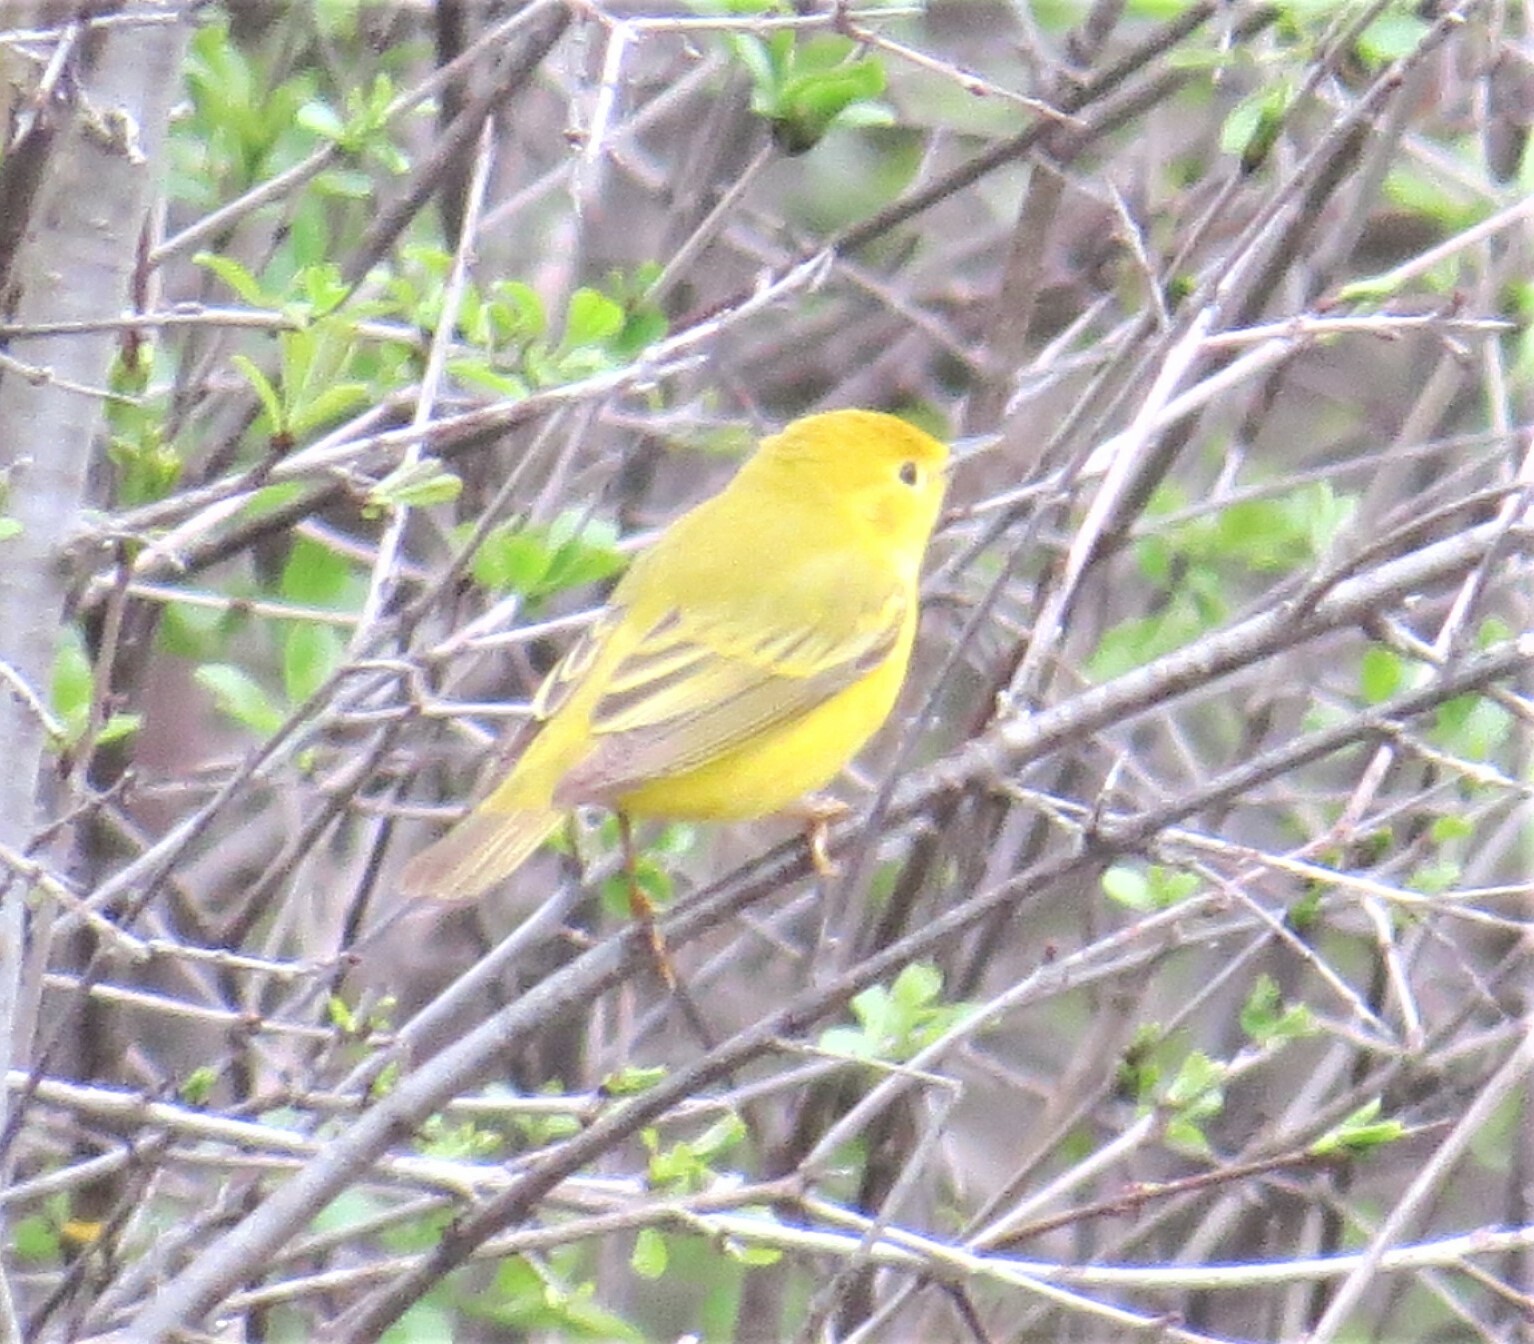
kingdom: Animalia
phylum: Chordata
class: Aves
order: Passeriformes
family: Parulidae
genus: Setophaga
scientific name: Setophaga petechia
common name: Yellow warbler
